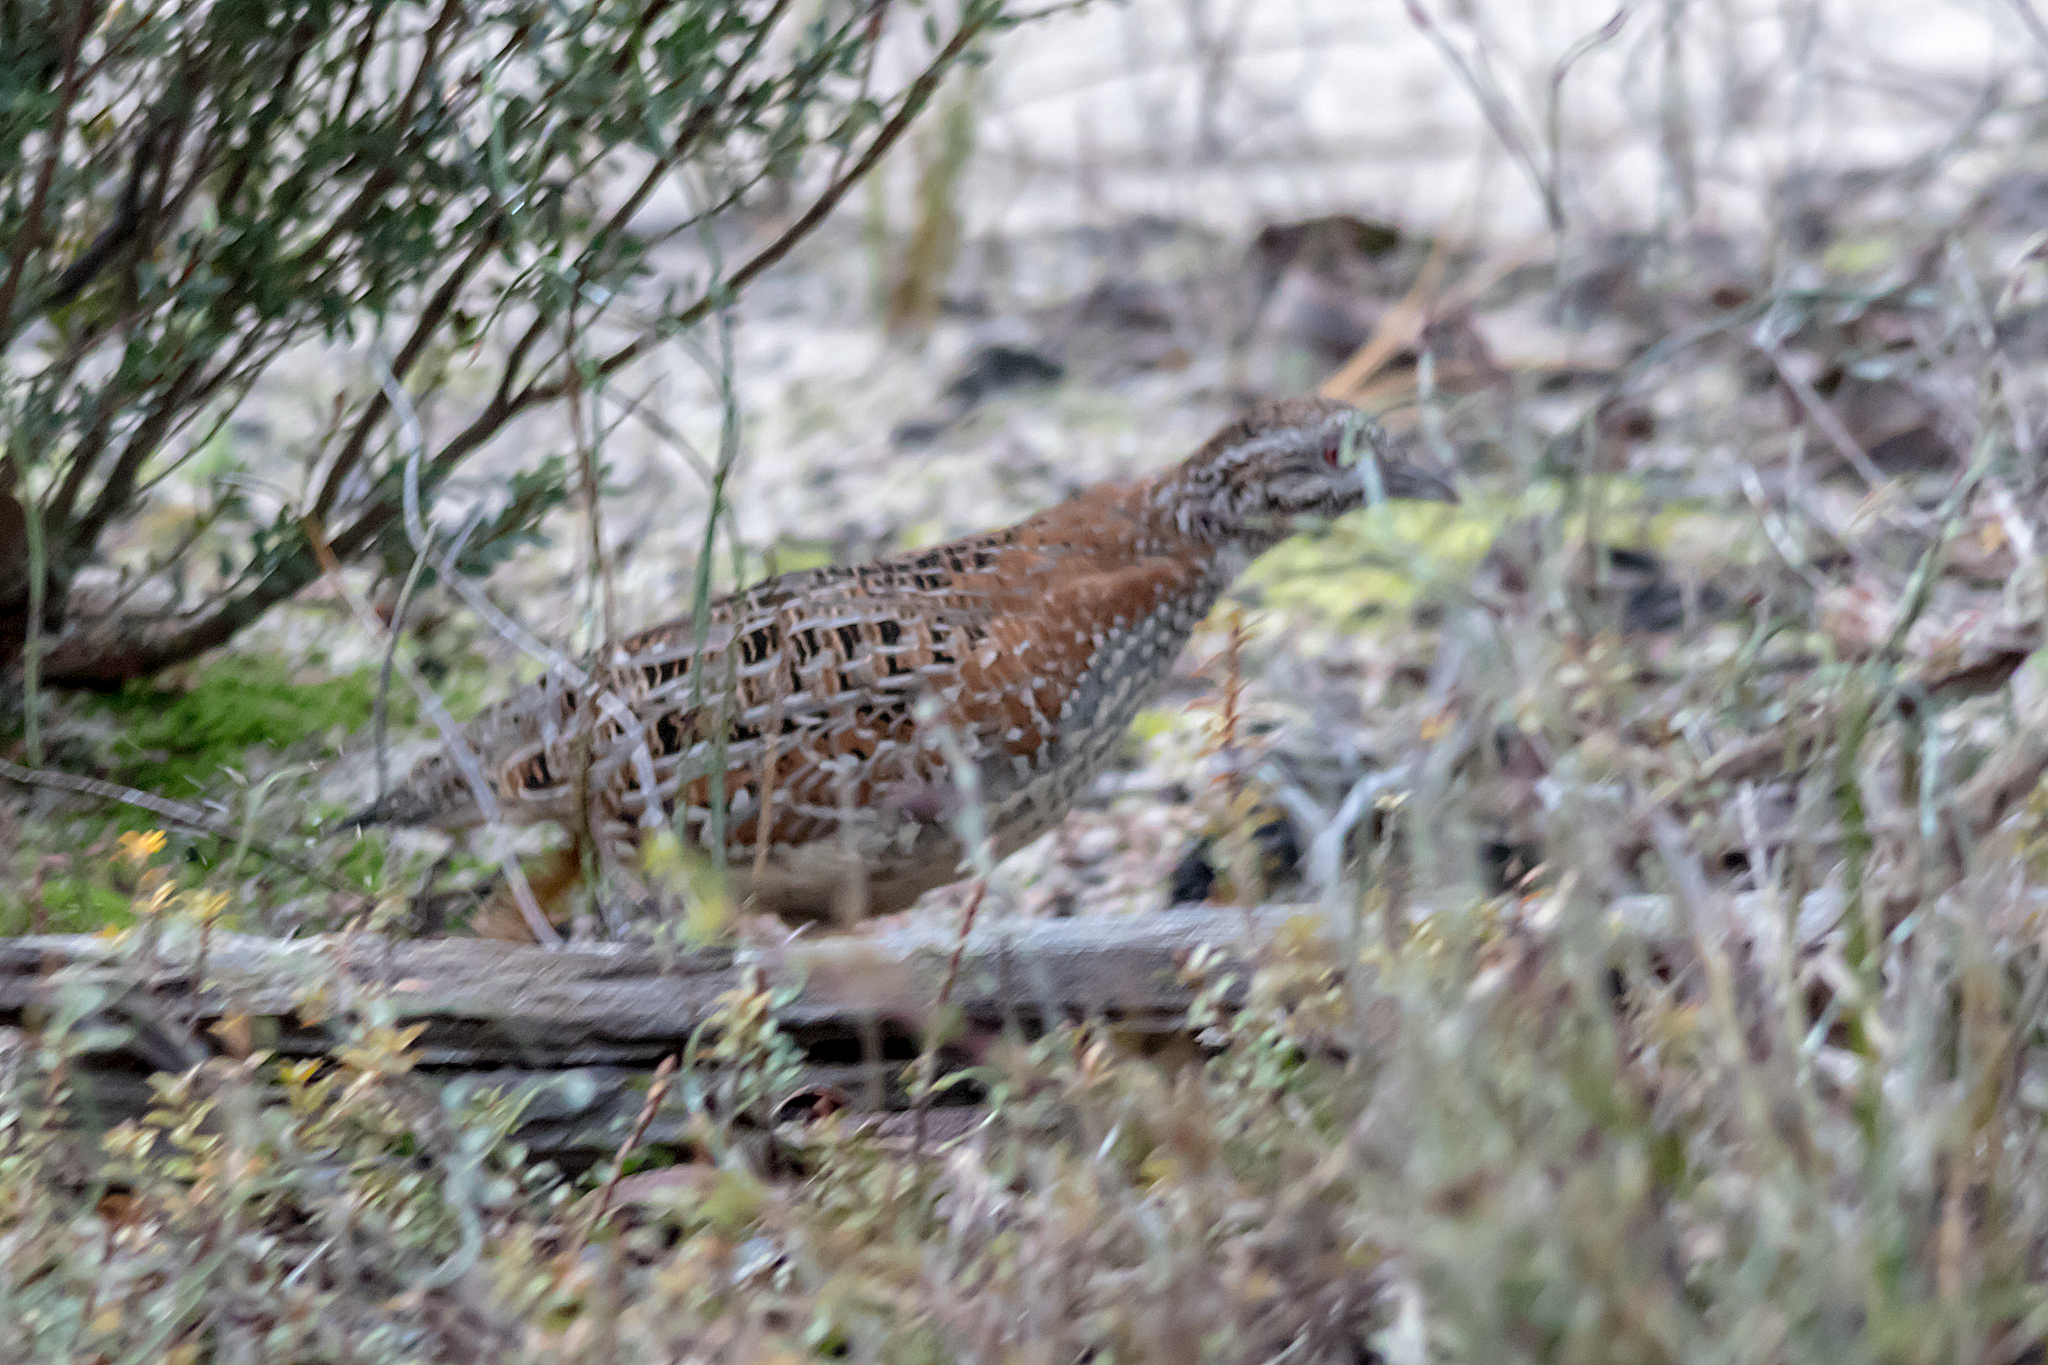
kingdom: Animalia
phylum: Chordata
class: Aves
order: Charadriiformes
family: Turnicidae
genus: Turnix
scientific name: Turnix varius
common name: Painted buttonquail
